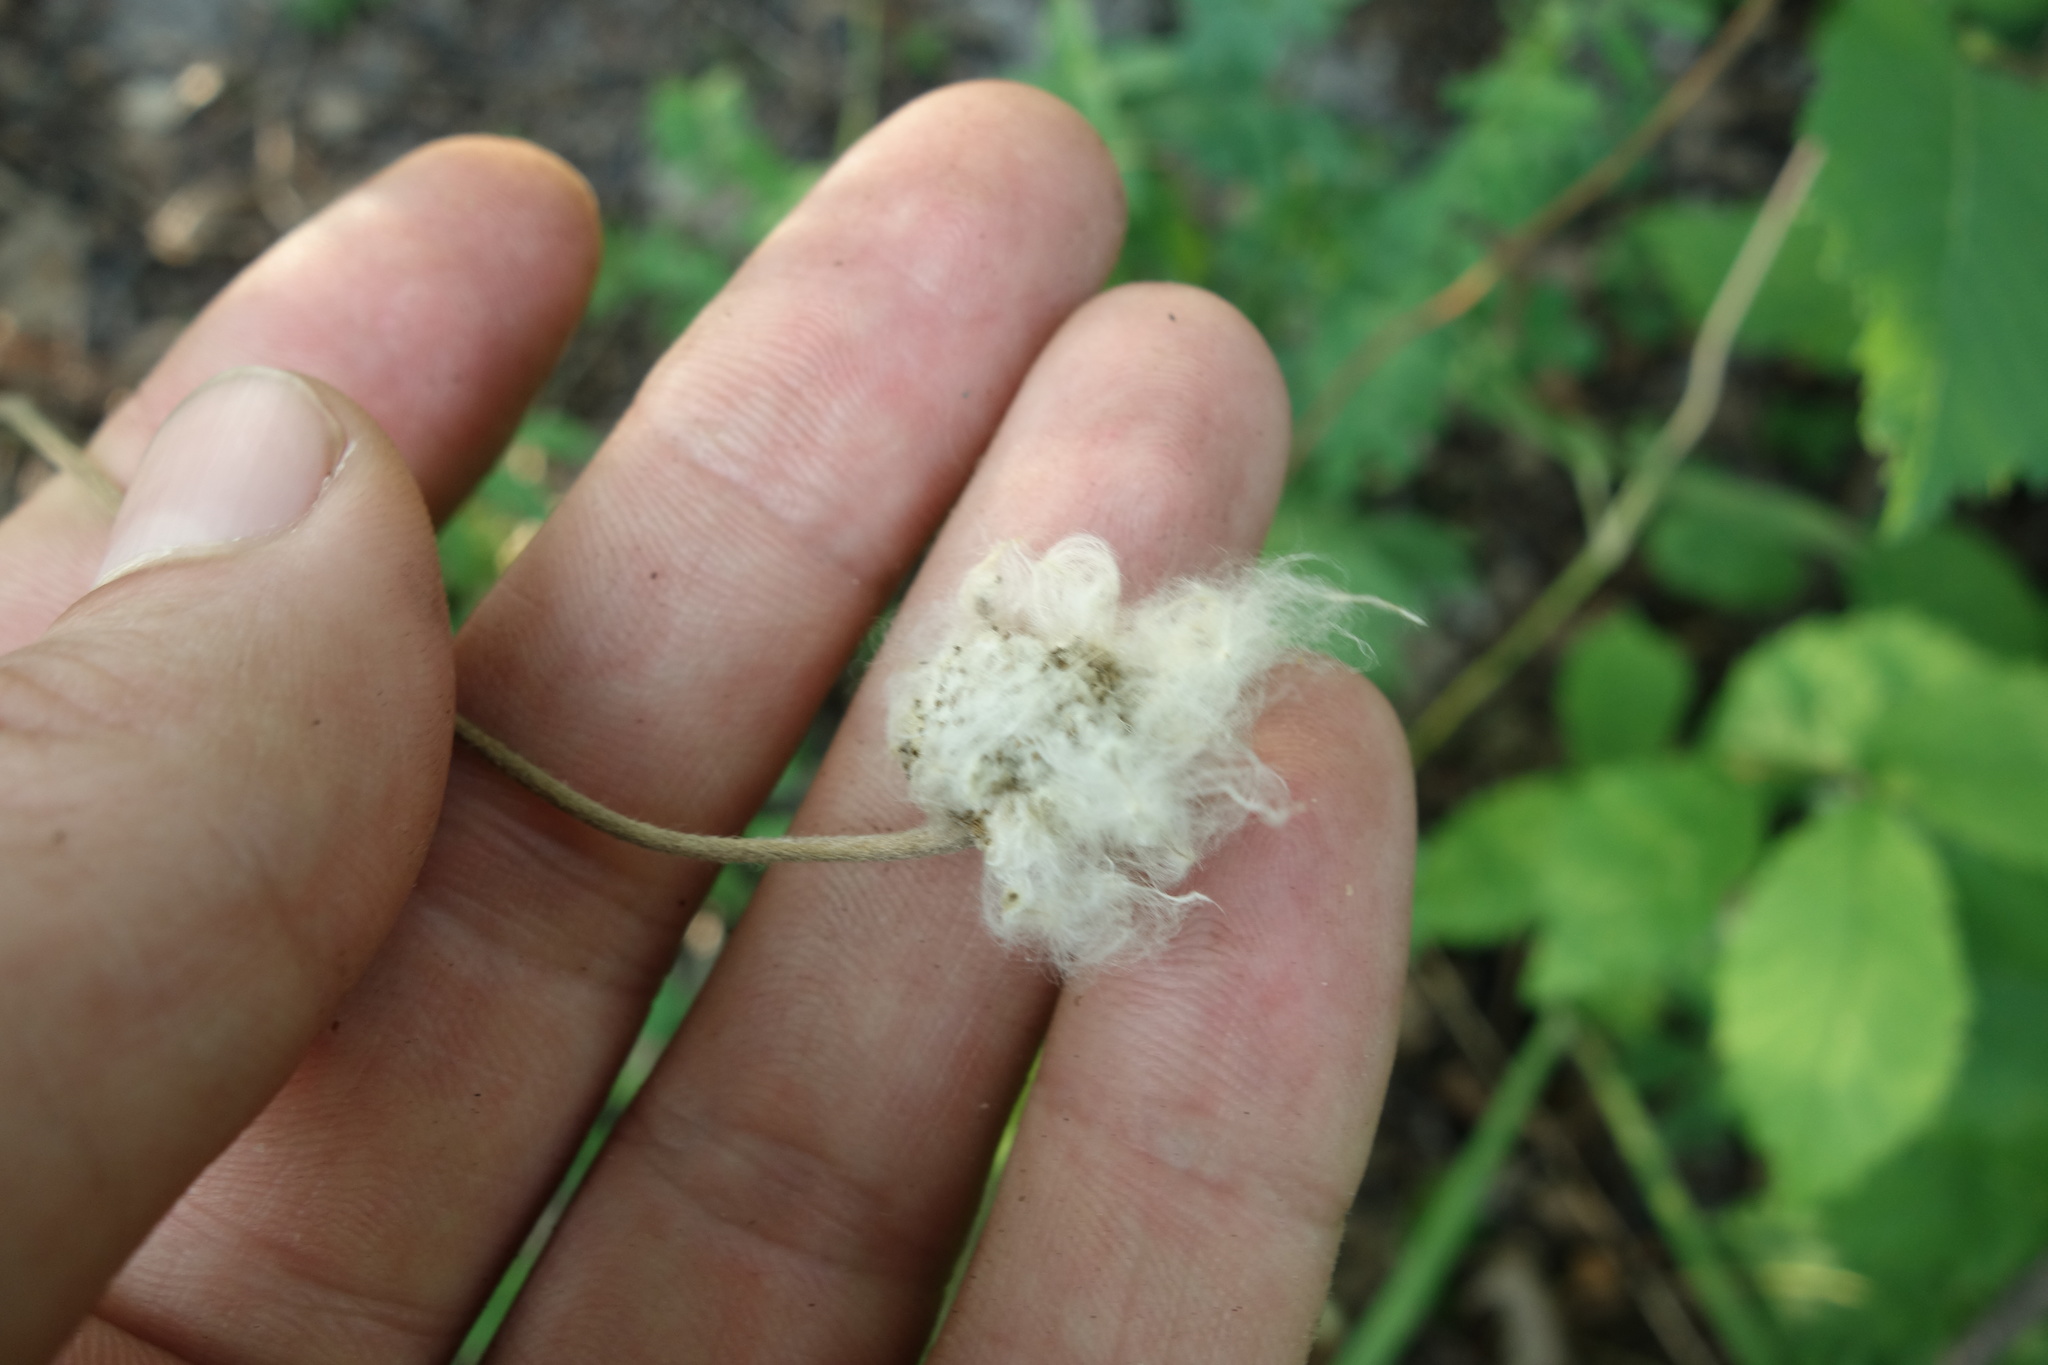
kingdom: Plantae
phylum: Tracheophyta
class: Magnoliopsida
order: Ranunculales
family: Ranunculaceae
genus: Anemone
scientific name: Anemone sylvestris
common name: Snowdrop anemone
